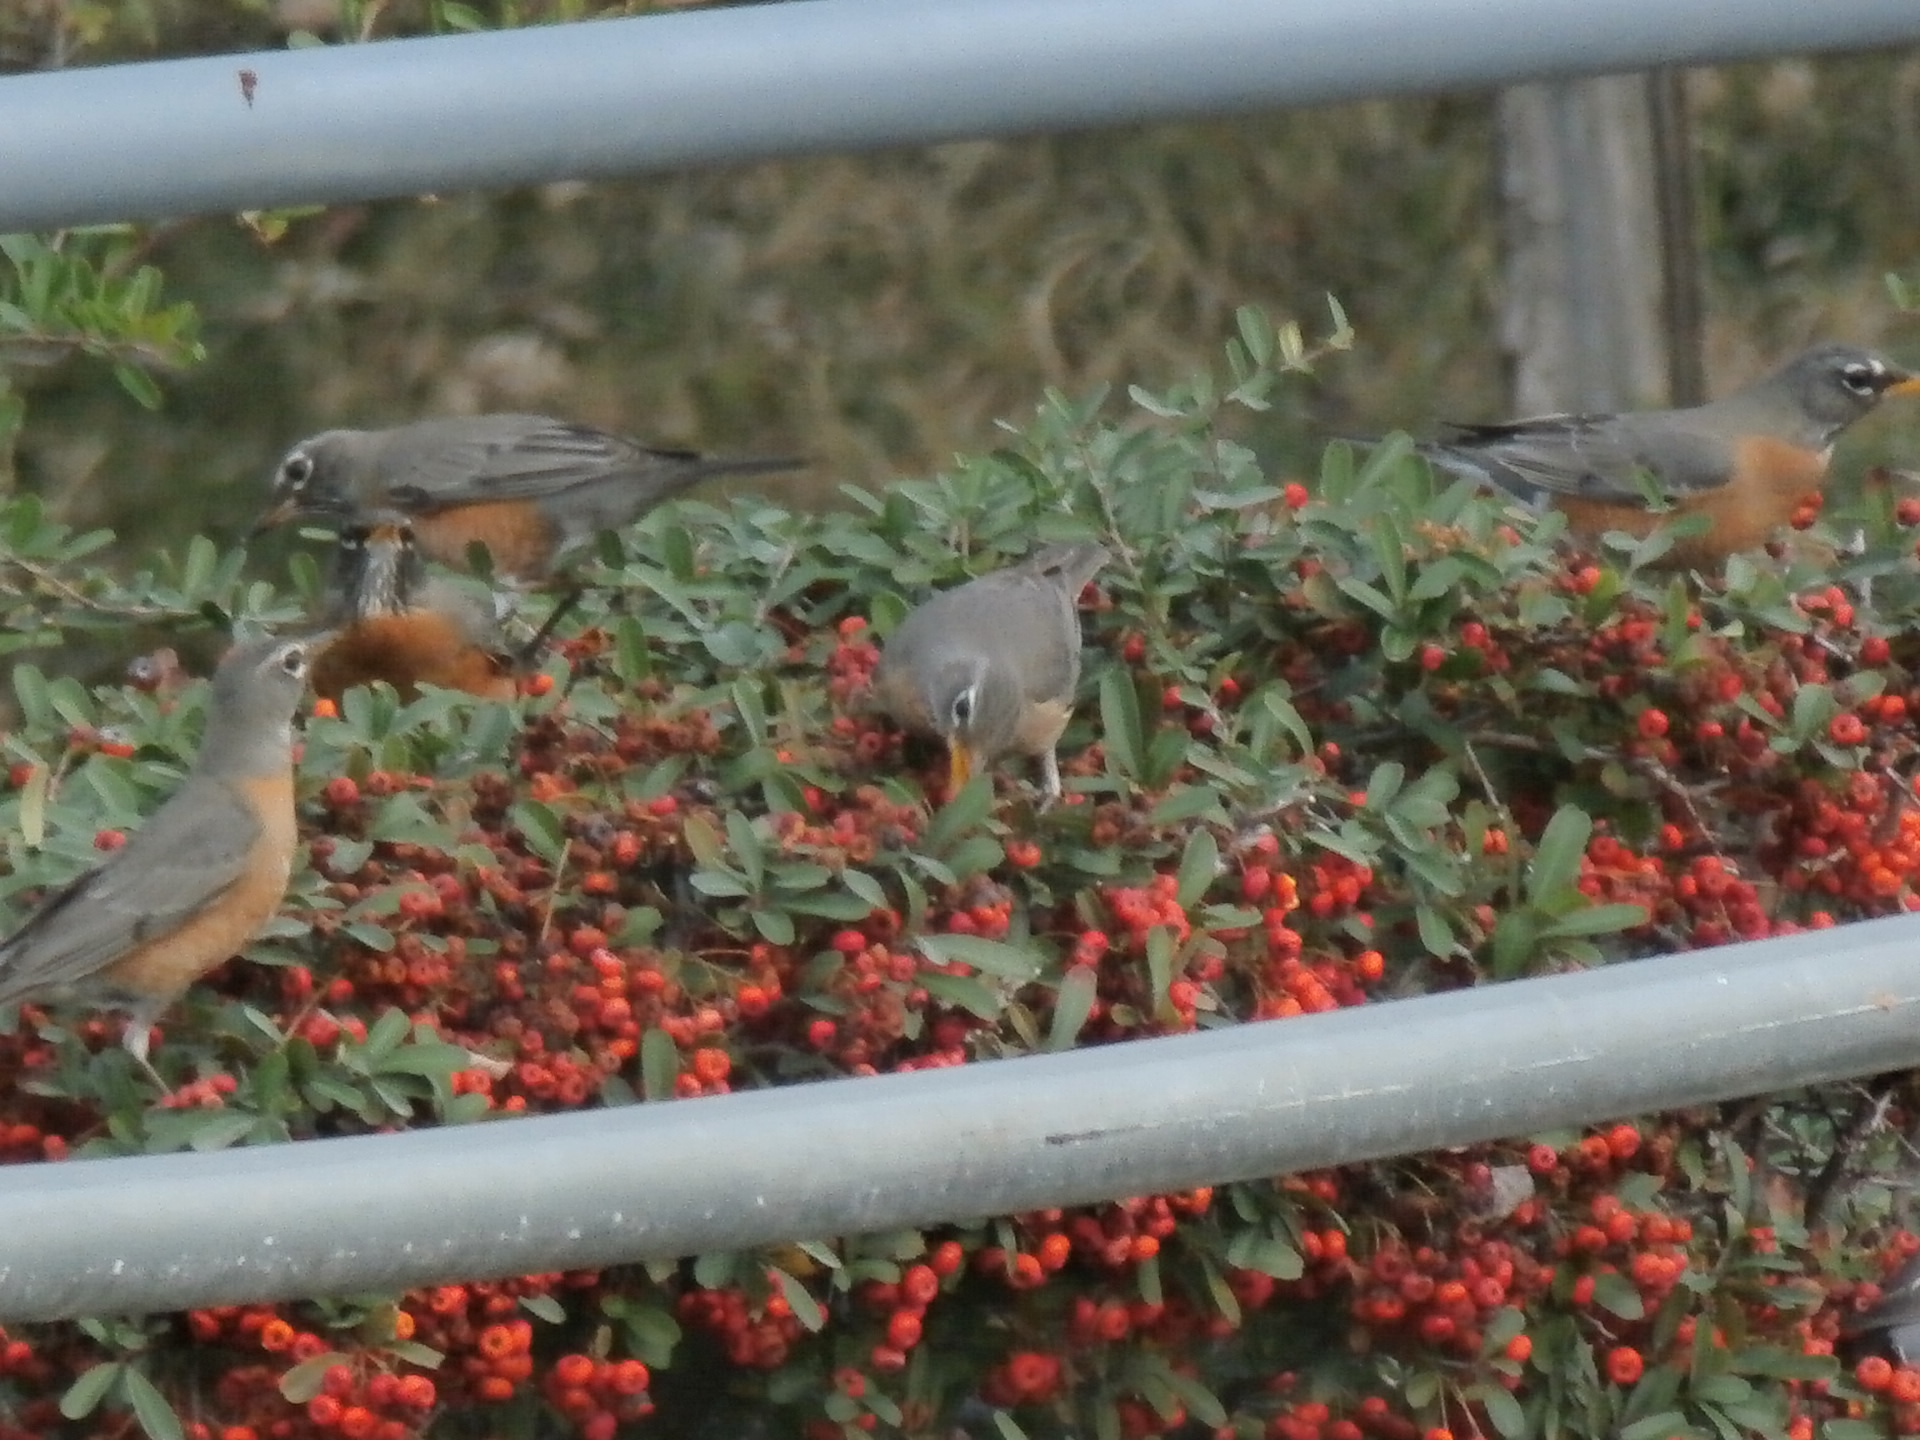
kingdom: Animalia
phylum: Chordata
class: Aves
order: Passeriformes
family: Turdidae
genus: Turdus
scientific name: Turdus migratorius
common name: American robin
